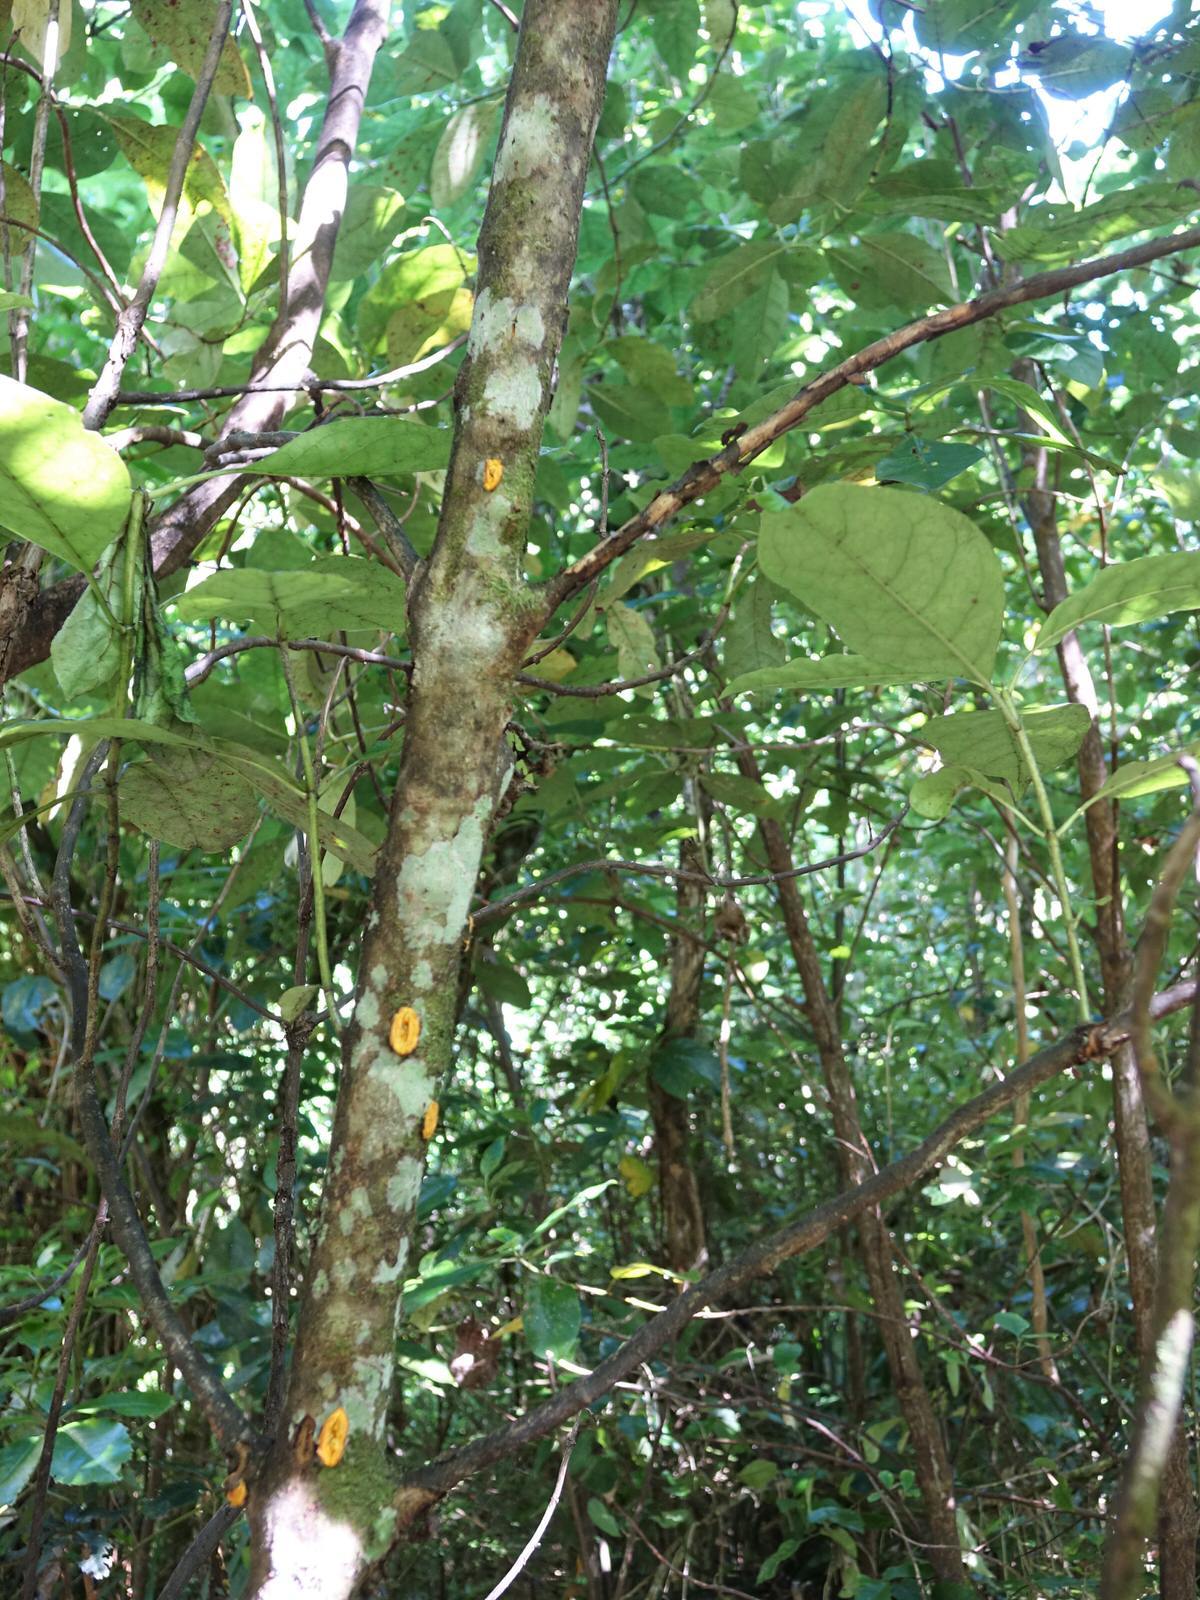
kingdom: Plantae
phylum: Tracheophyta
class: Magnoliopsida
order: Gentianales
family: Rubiaceae
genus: Coprosma
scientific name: Coprosma autumnalis
